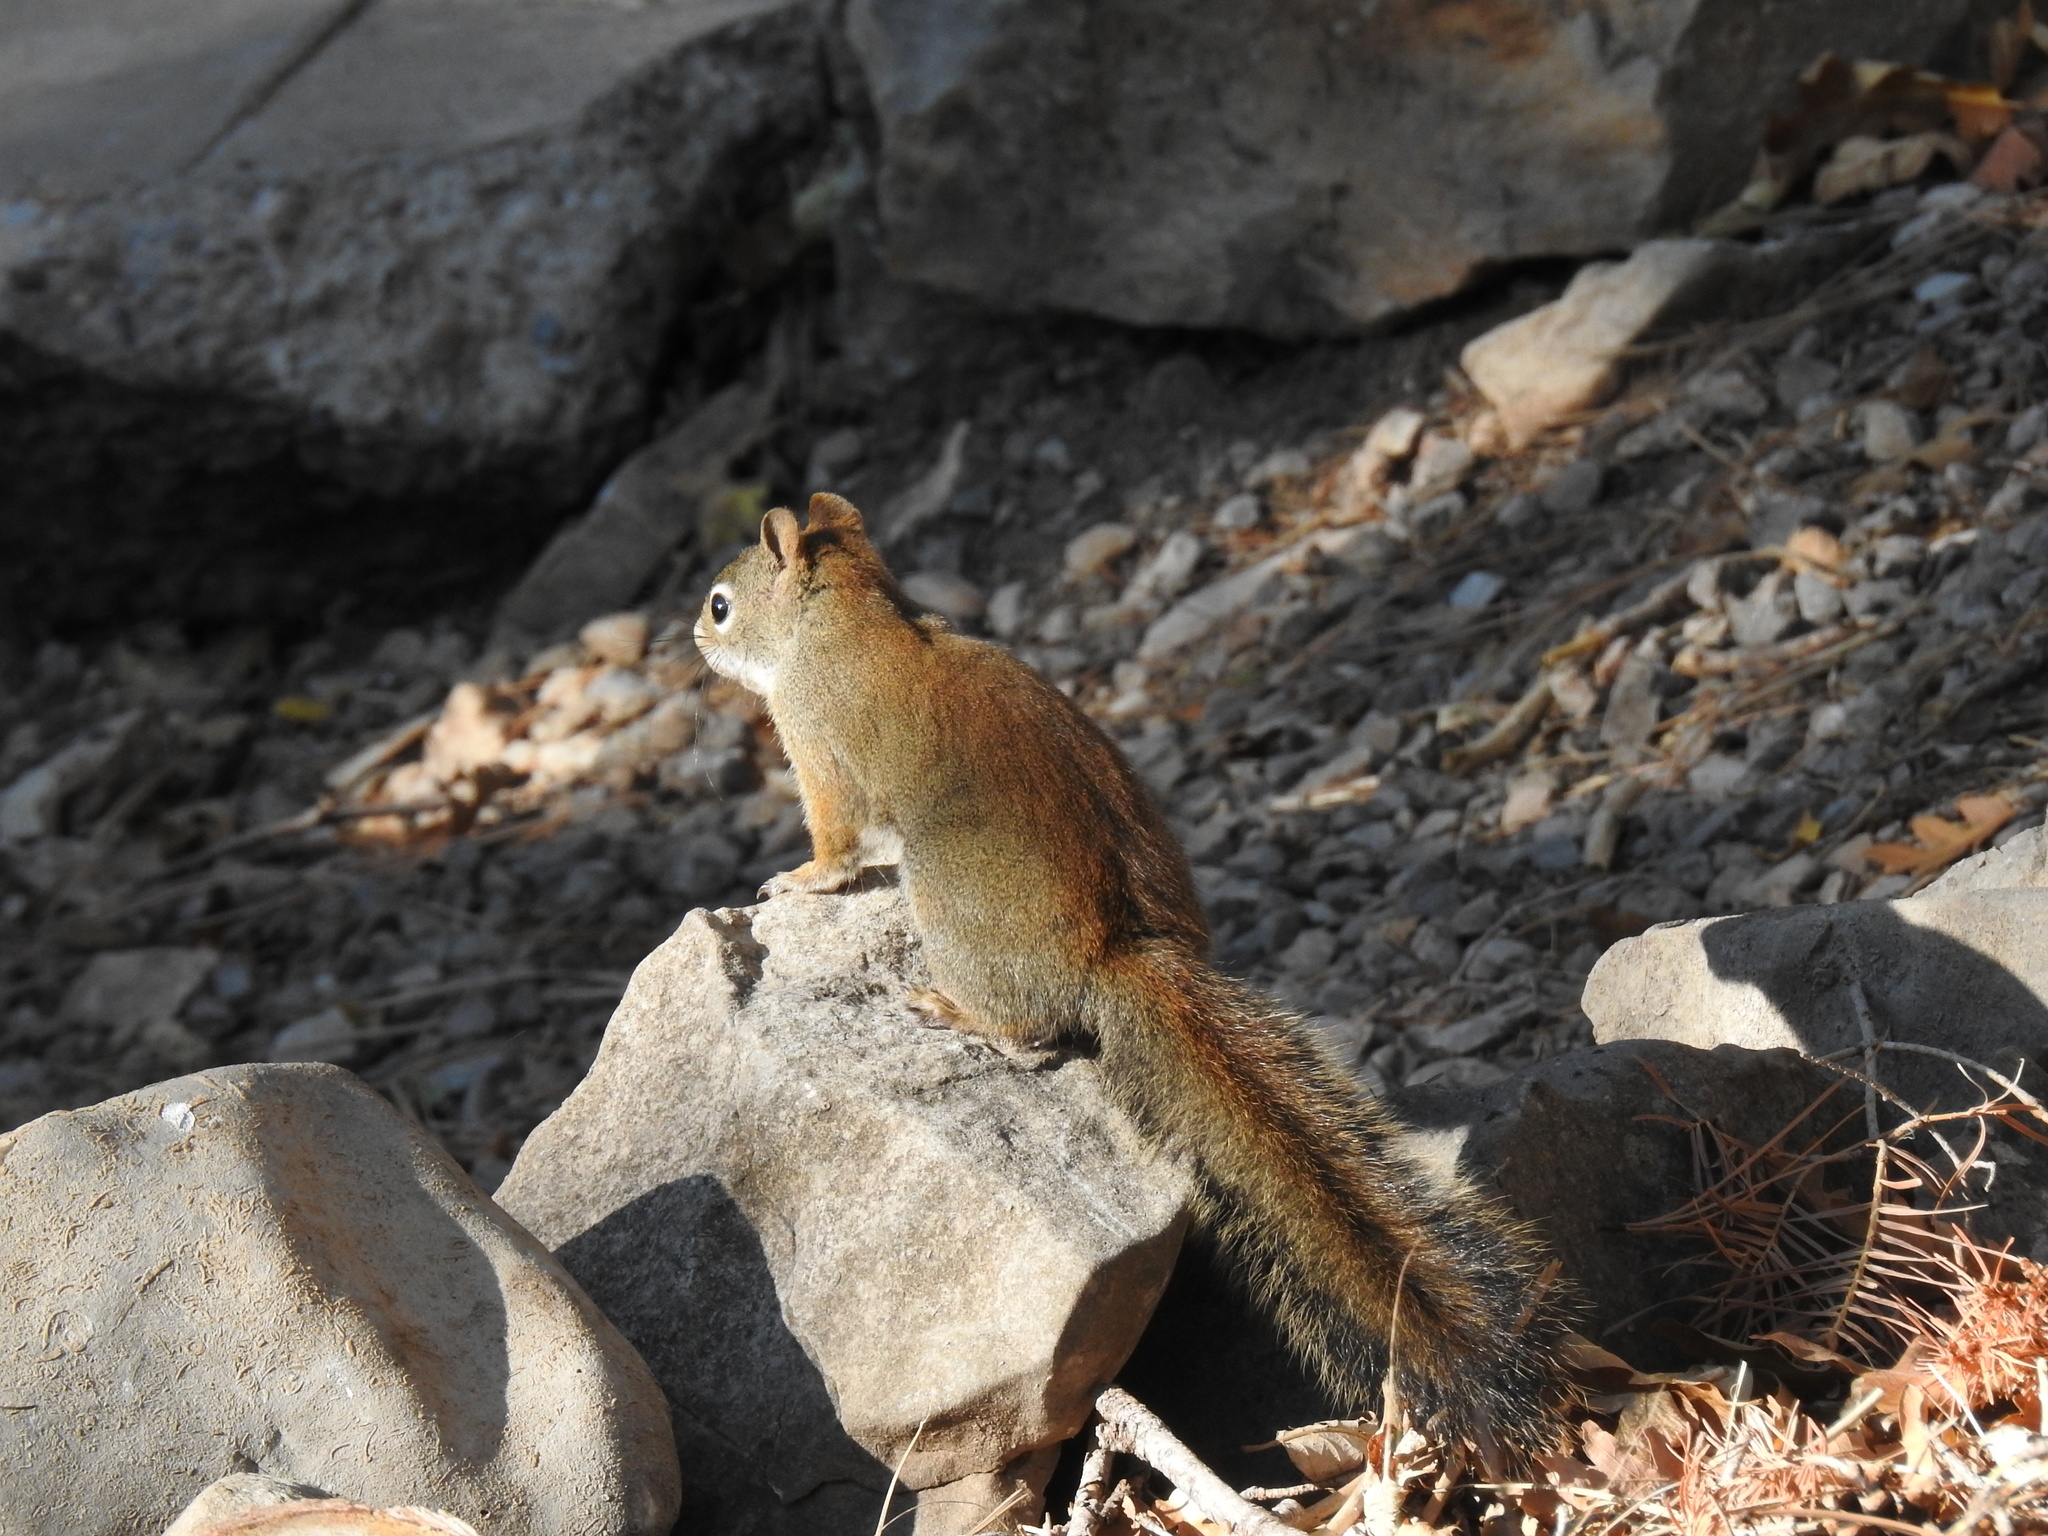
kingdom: Animalia
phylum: Chordata
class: Mammalia
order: Rodentia
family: Sciuridae
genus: Tamiasciurus
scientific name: Tamiasciurus hudsonicus
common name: Red squirrel
